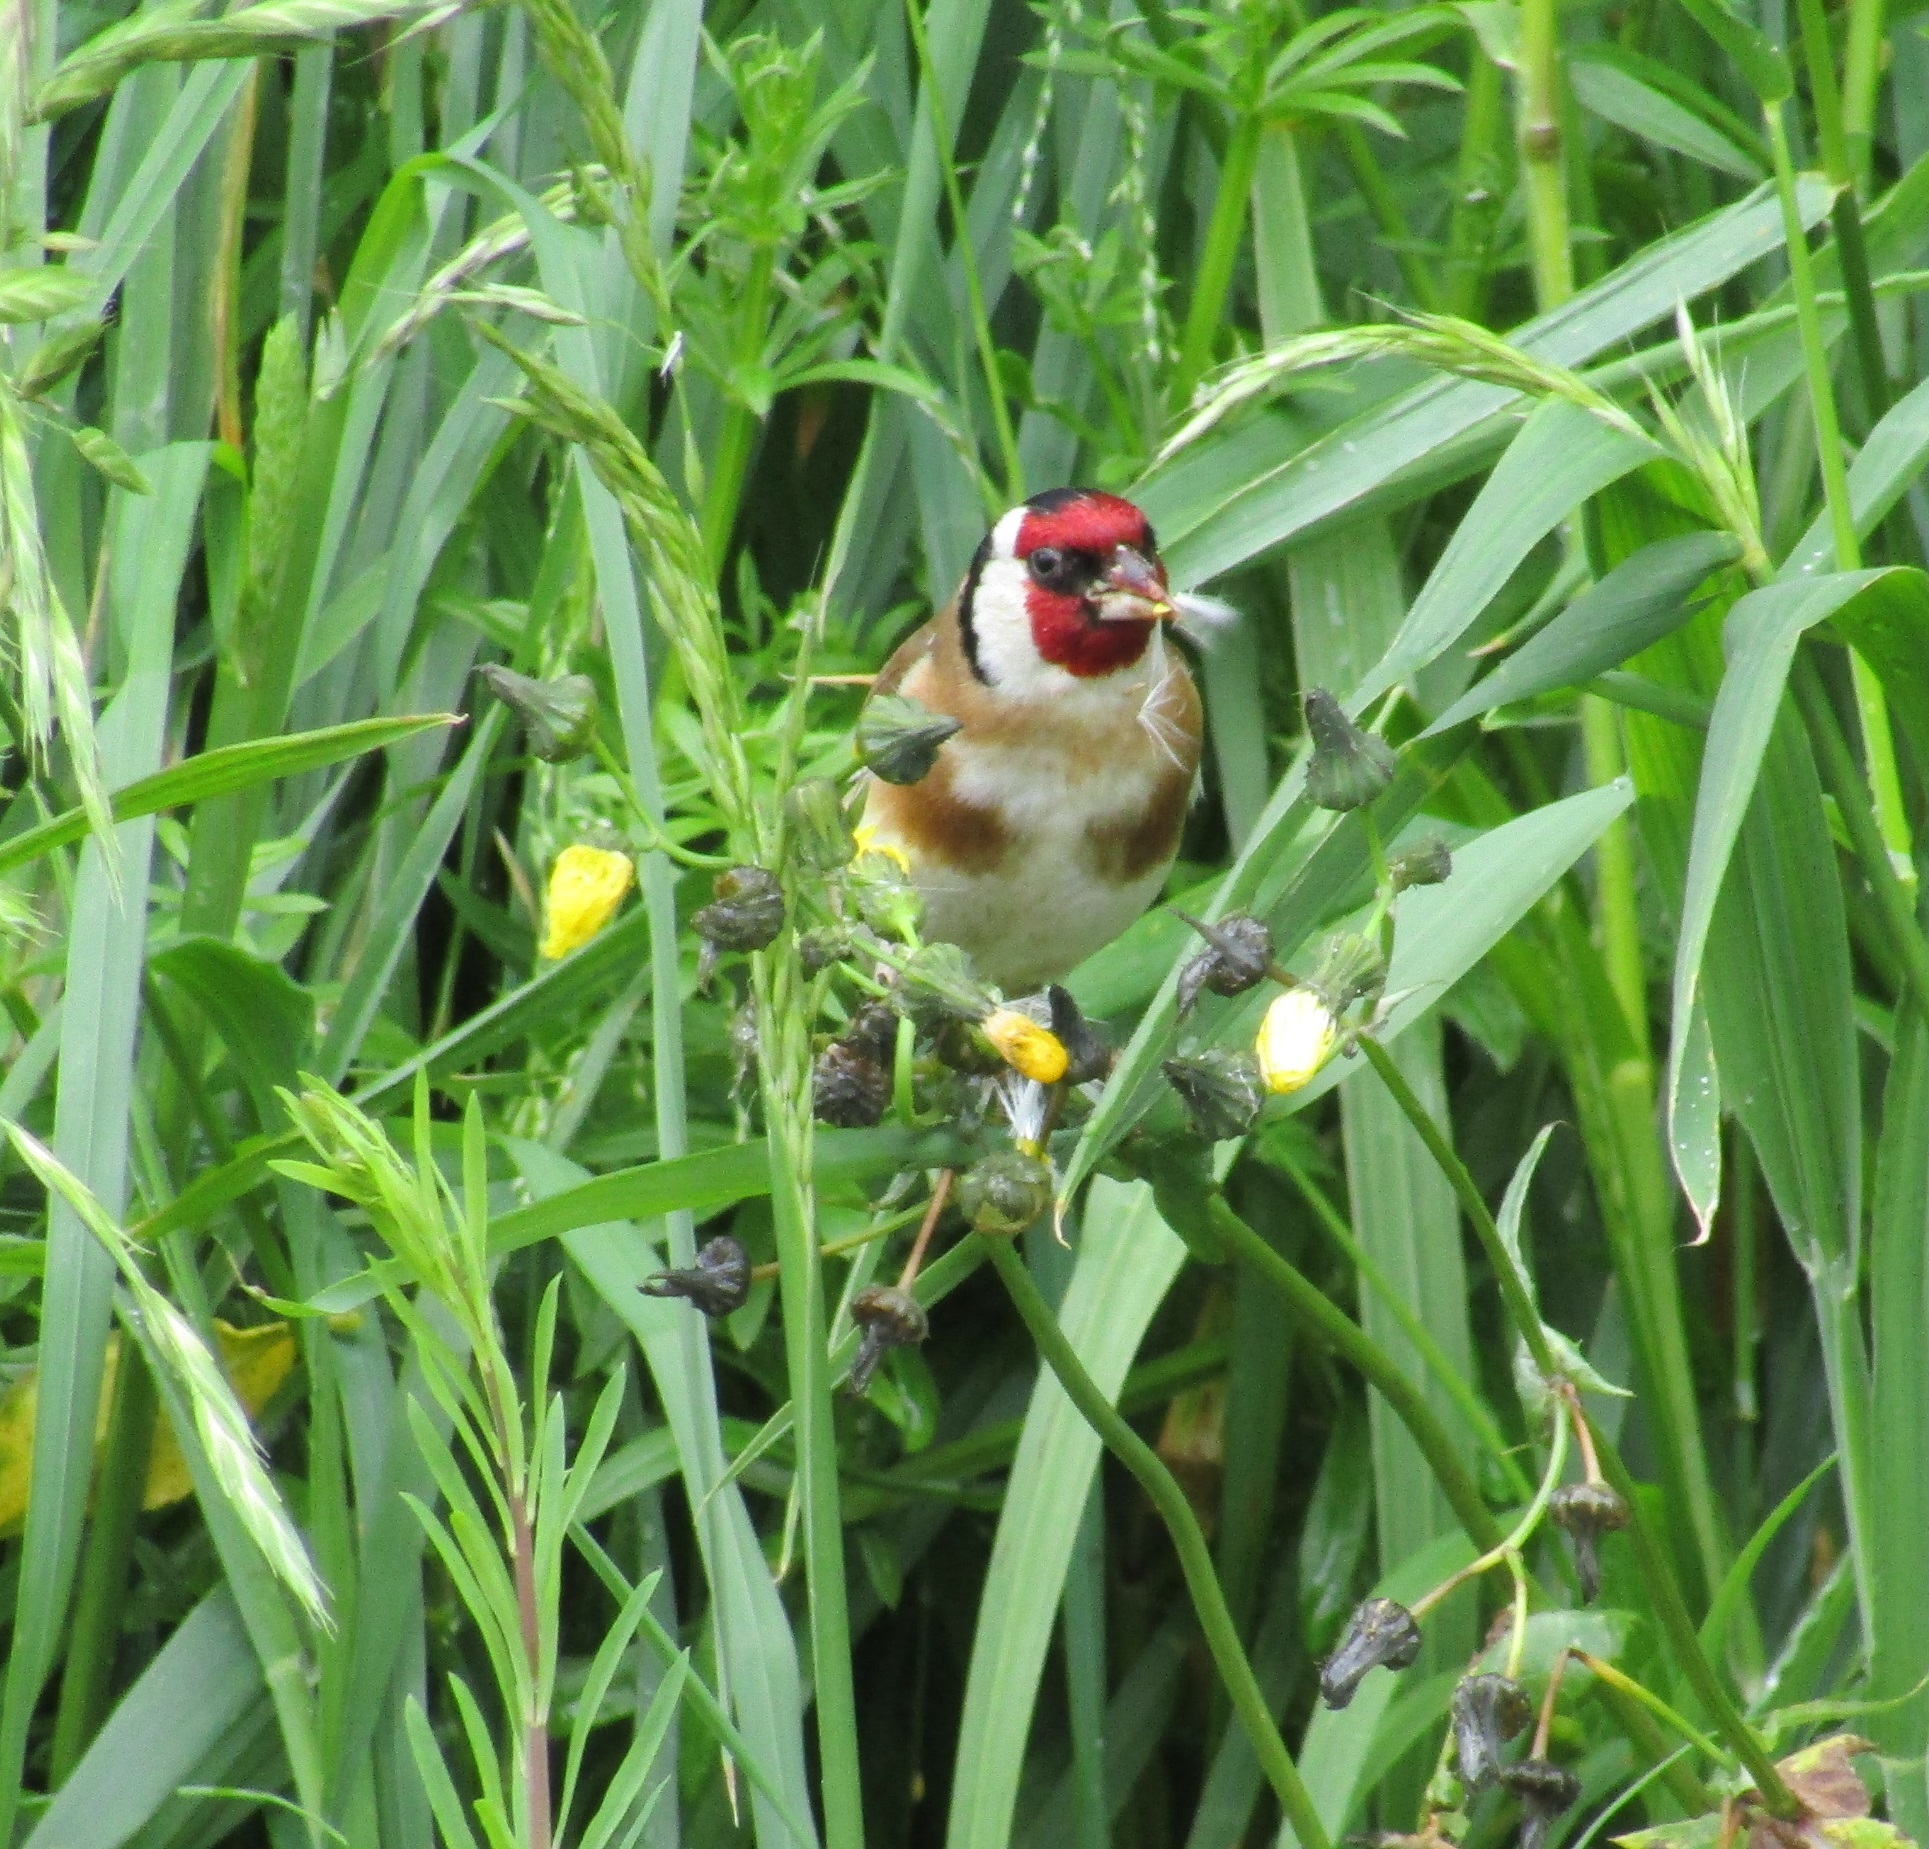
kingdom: Animalia
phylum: Chordata
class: Aves
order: Passeriformes
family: Fringillidae
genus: Carduelis
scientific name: Carduelis carduelis
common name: European goldfinch
